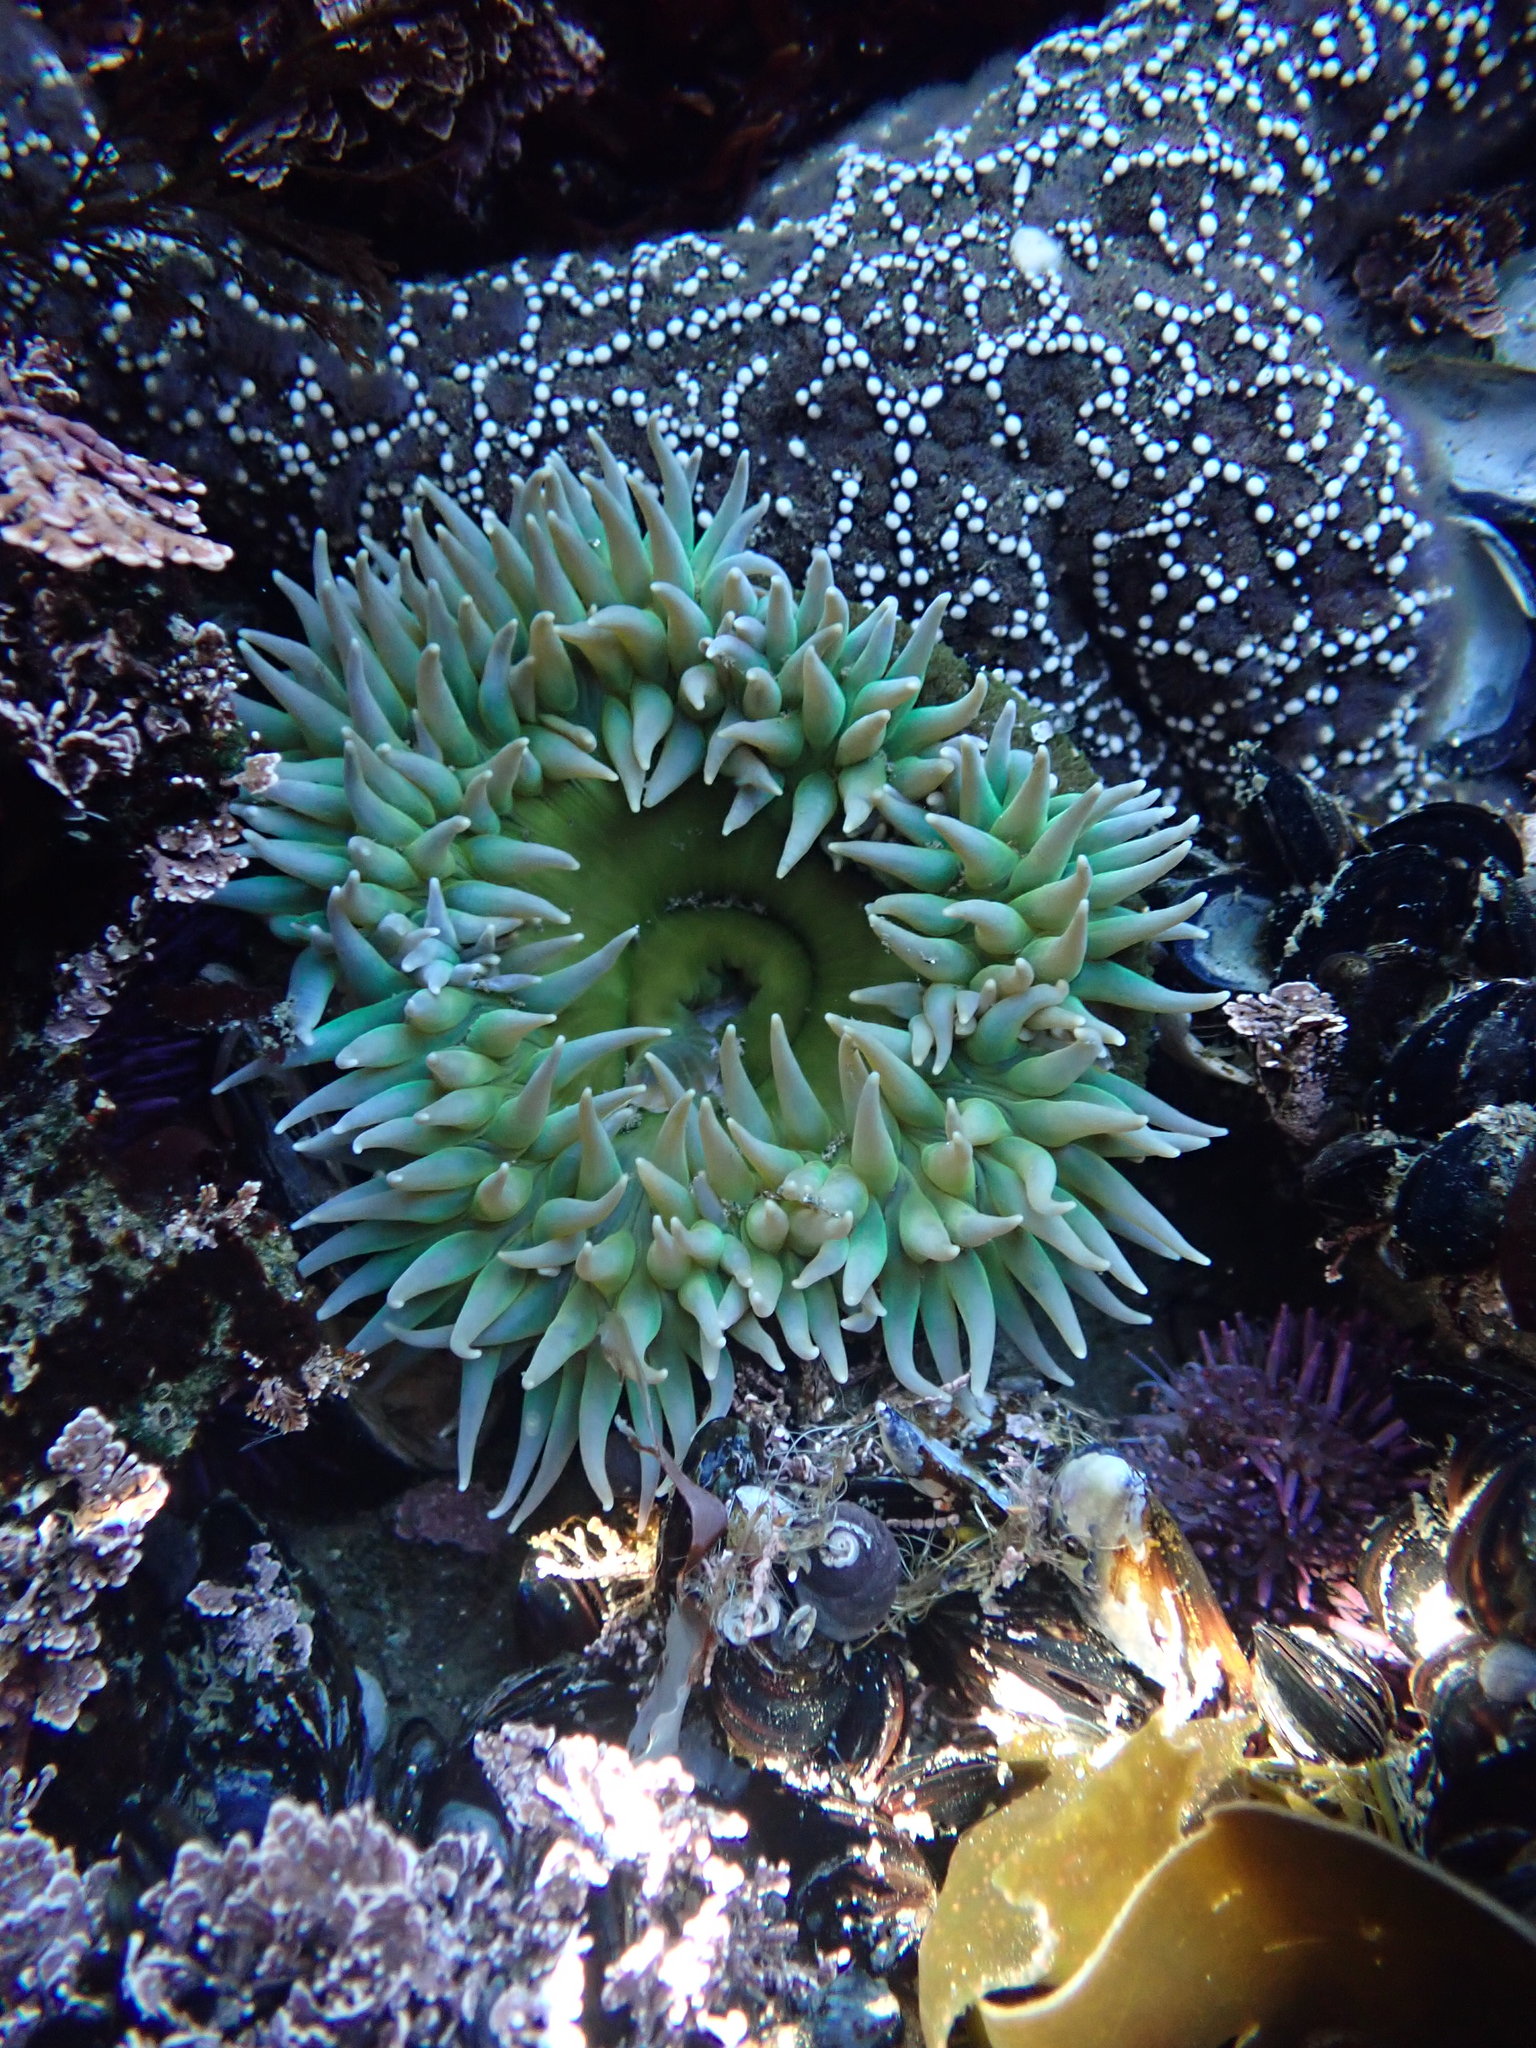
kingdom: Animalia
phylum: Echinodermata
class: Asteroidea
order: Forcipulatida
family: Asteriidae
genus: Pisaster
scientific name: Pisaster ochraceus
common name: Ochre stars
